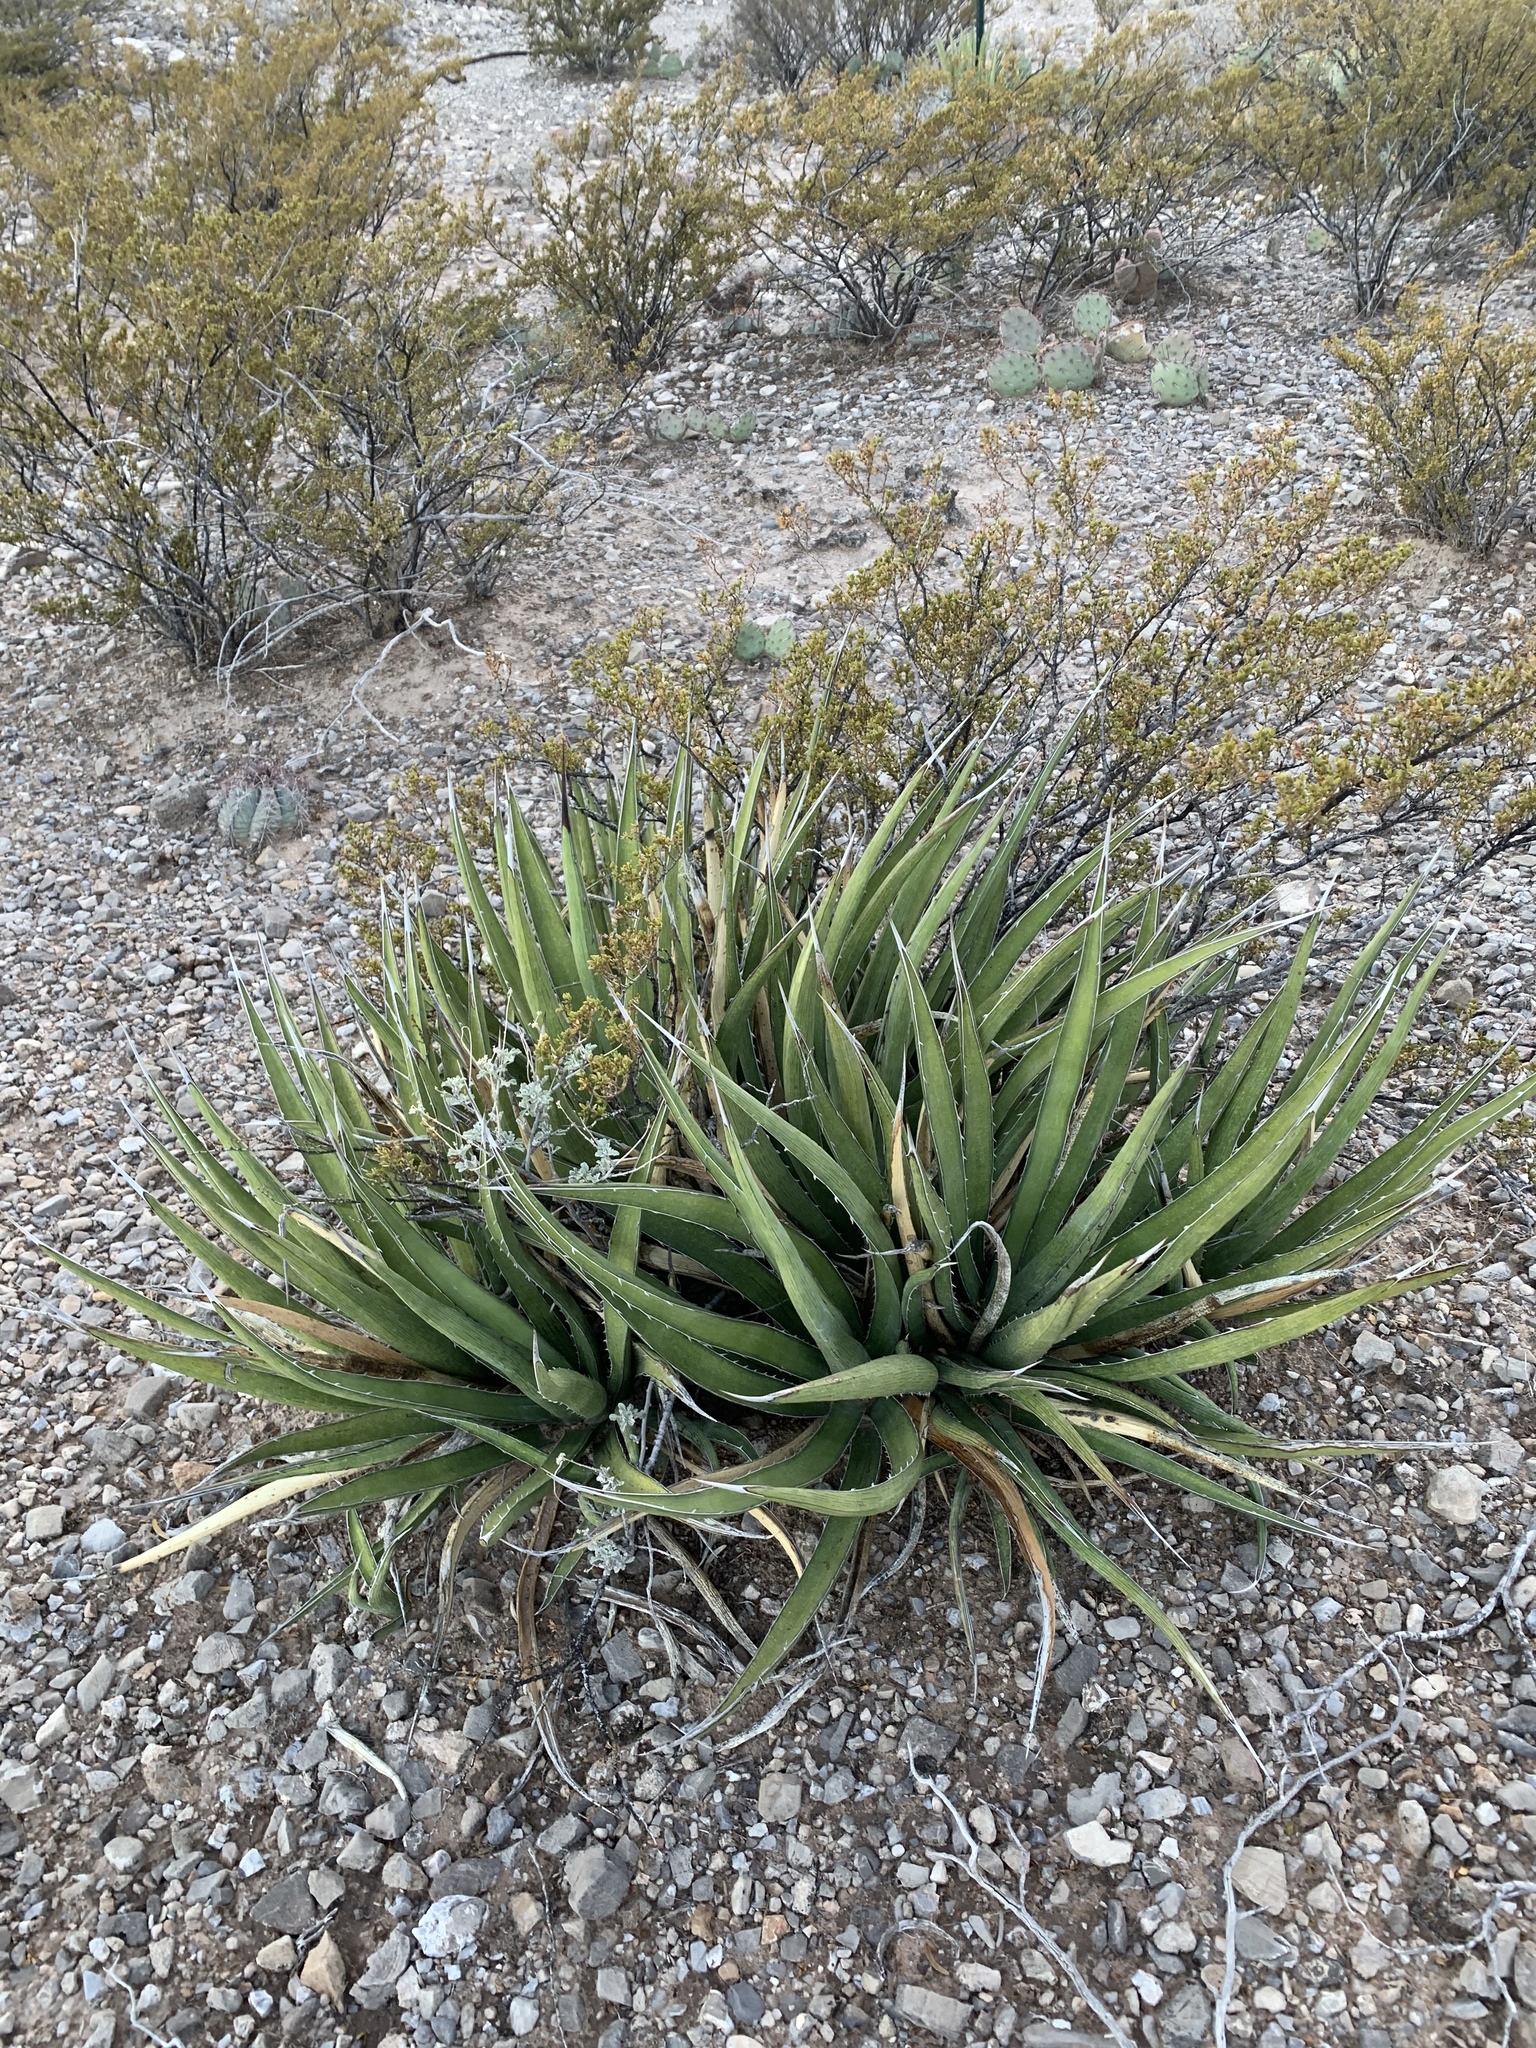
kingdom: Plantae
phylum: Tracheophyta
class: Liliopsida
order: Asparagales
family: Asparagaceae
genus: Agave
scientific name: Agave lechuguilla
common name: Lecheguilla agave
